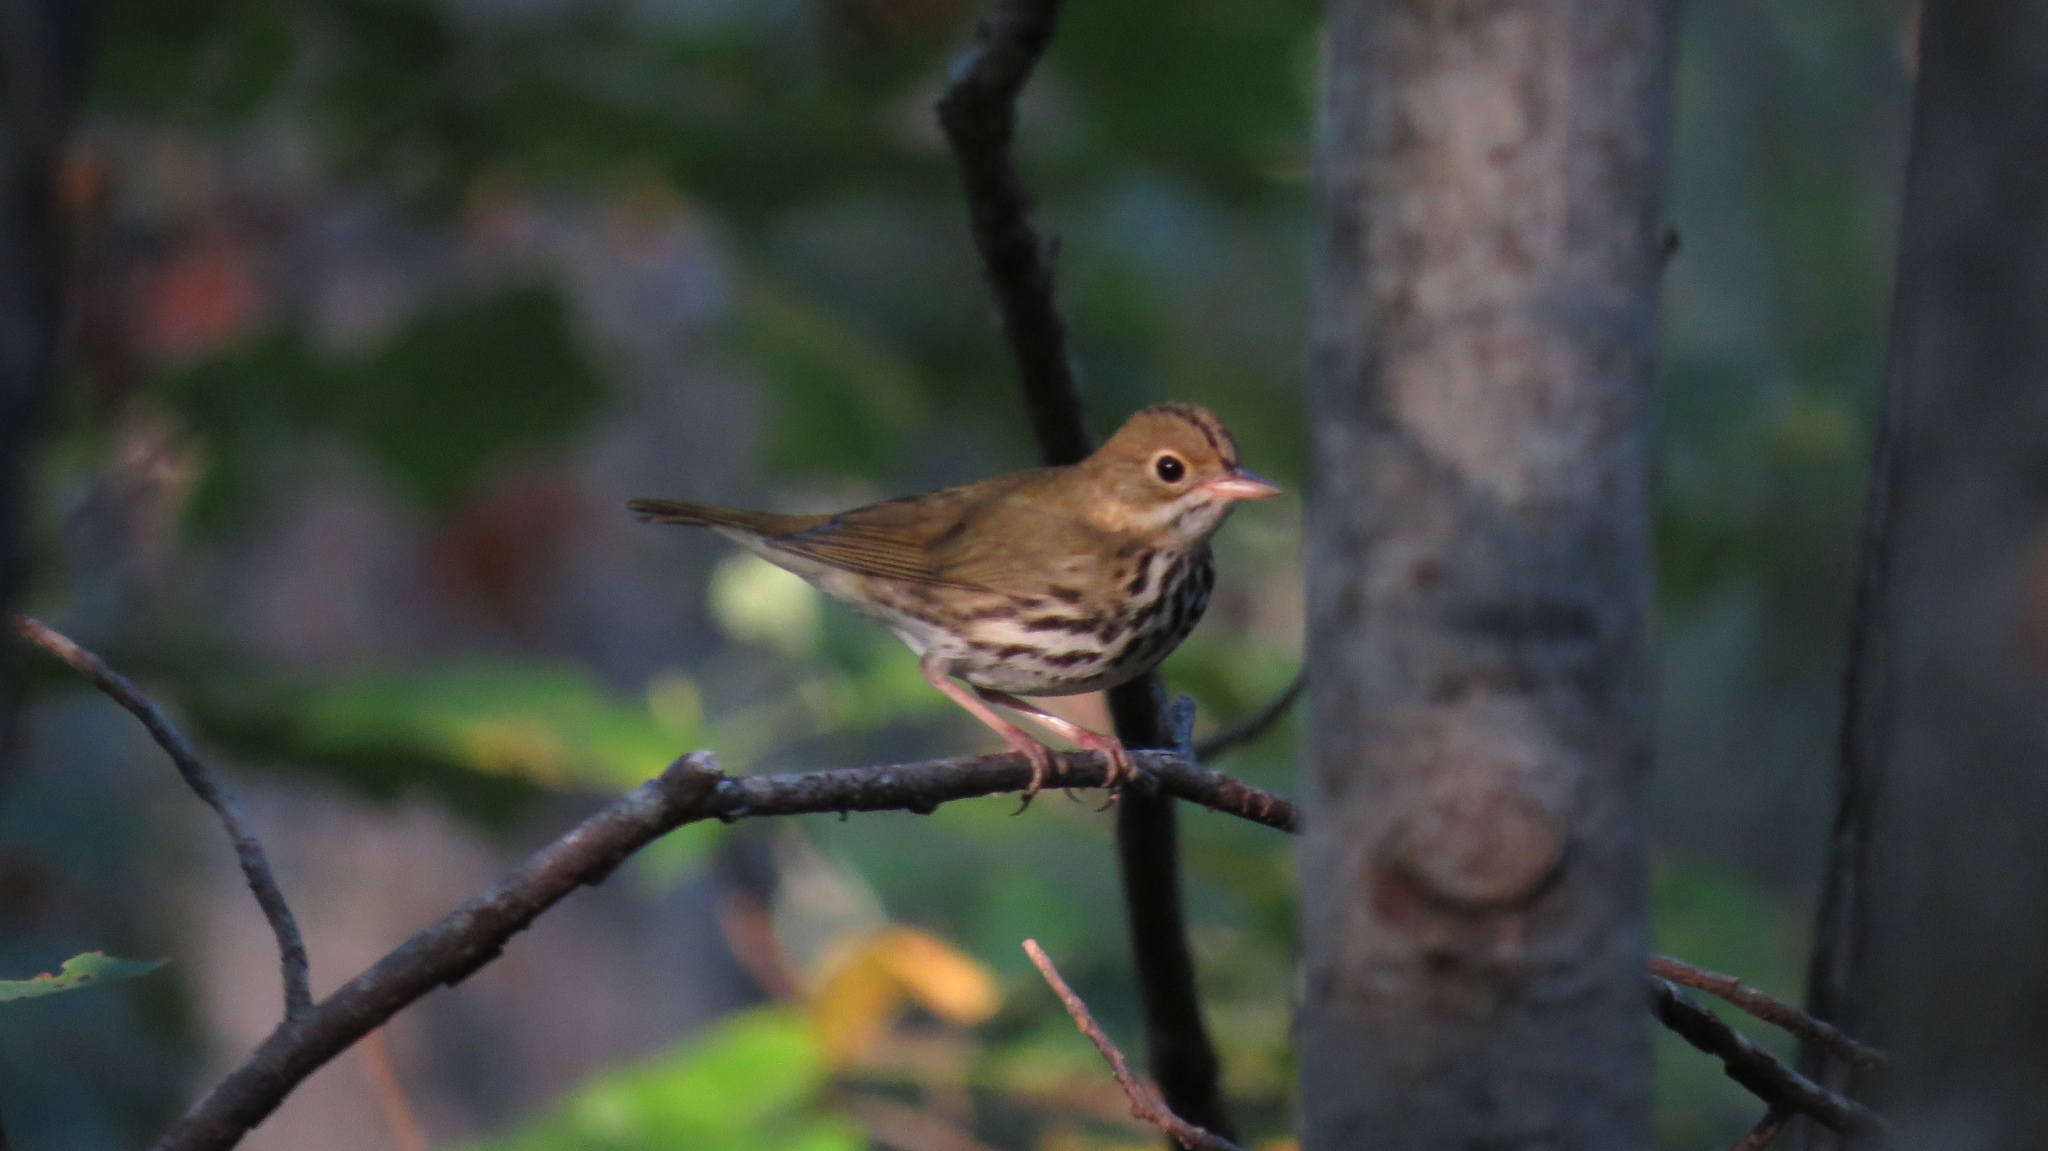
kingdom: Animalia
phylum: Chordata
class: Aves
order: Passeriformes
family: Parulidae
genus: Seiurus
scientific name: Seiurus aurocapilla
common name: Ovenbird
